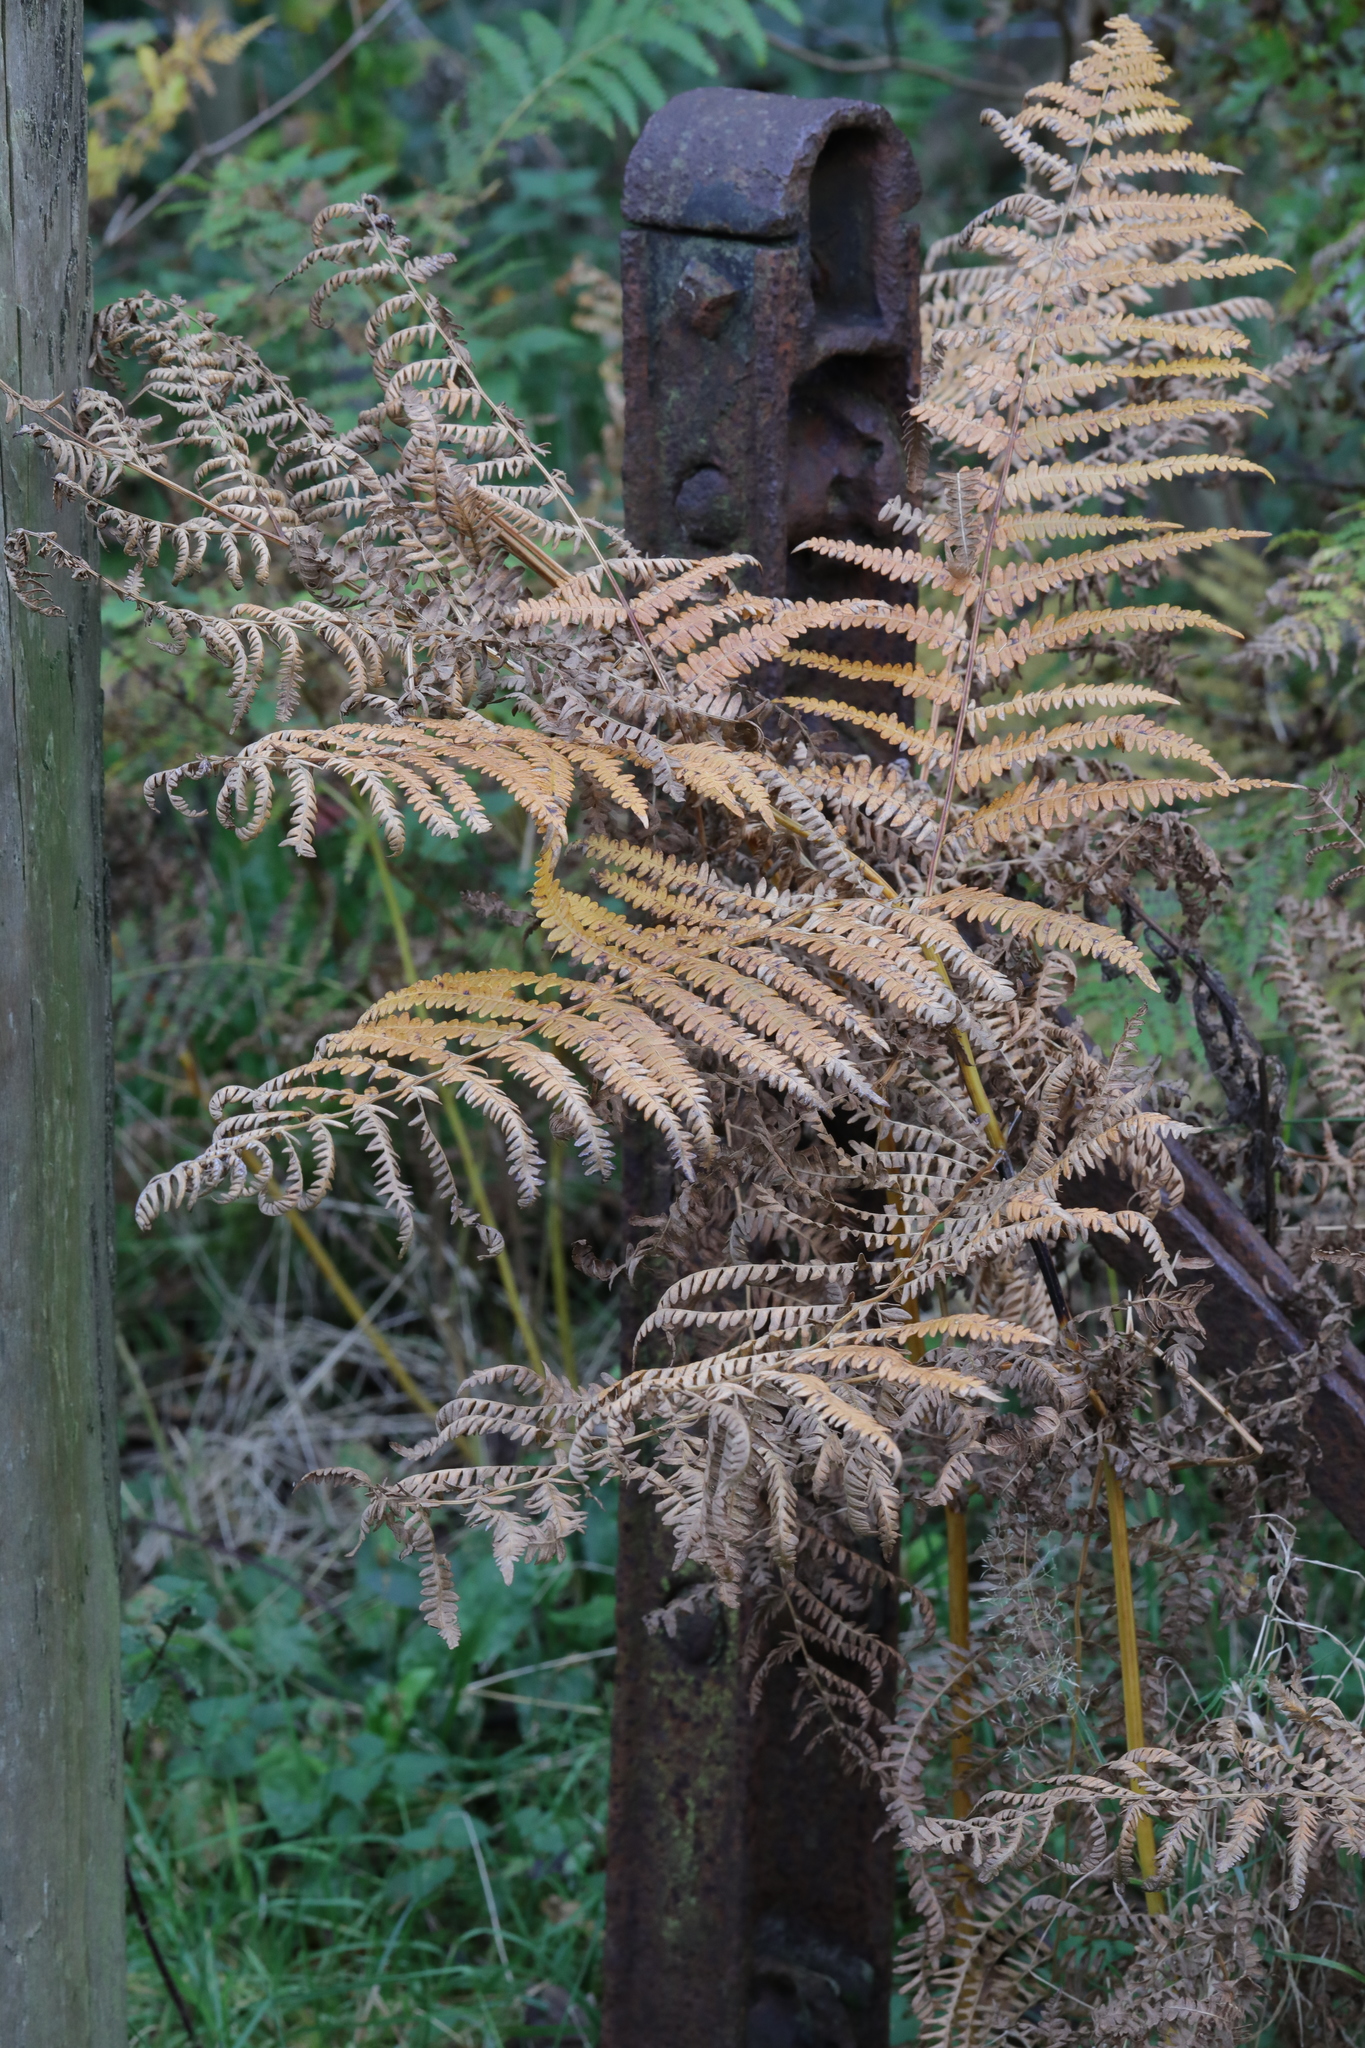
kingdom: Plantae
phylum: Tracheophyta
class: Polypodiopsida
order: Polypodiales
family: Dennstaedtiaceae
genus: Pteridium
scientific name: Pteridium aquilinum
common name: Bracken
